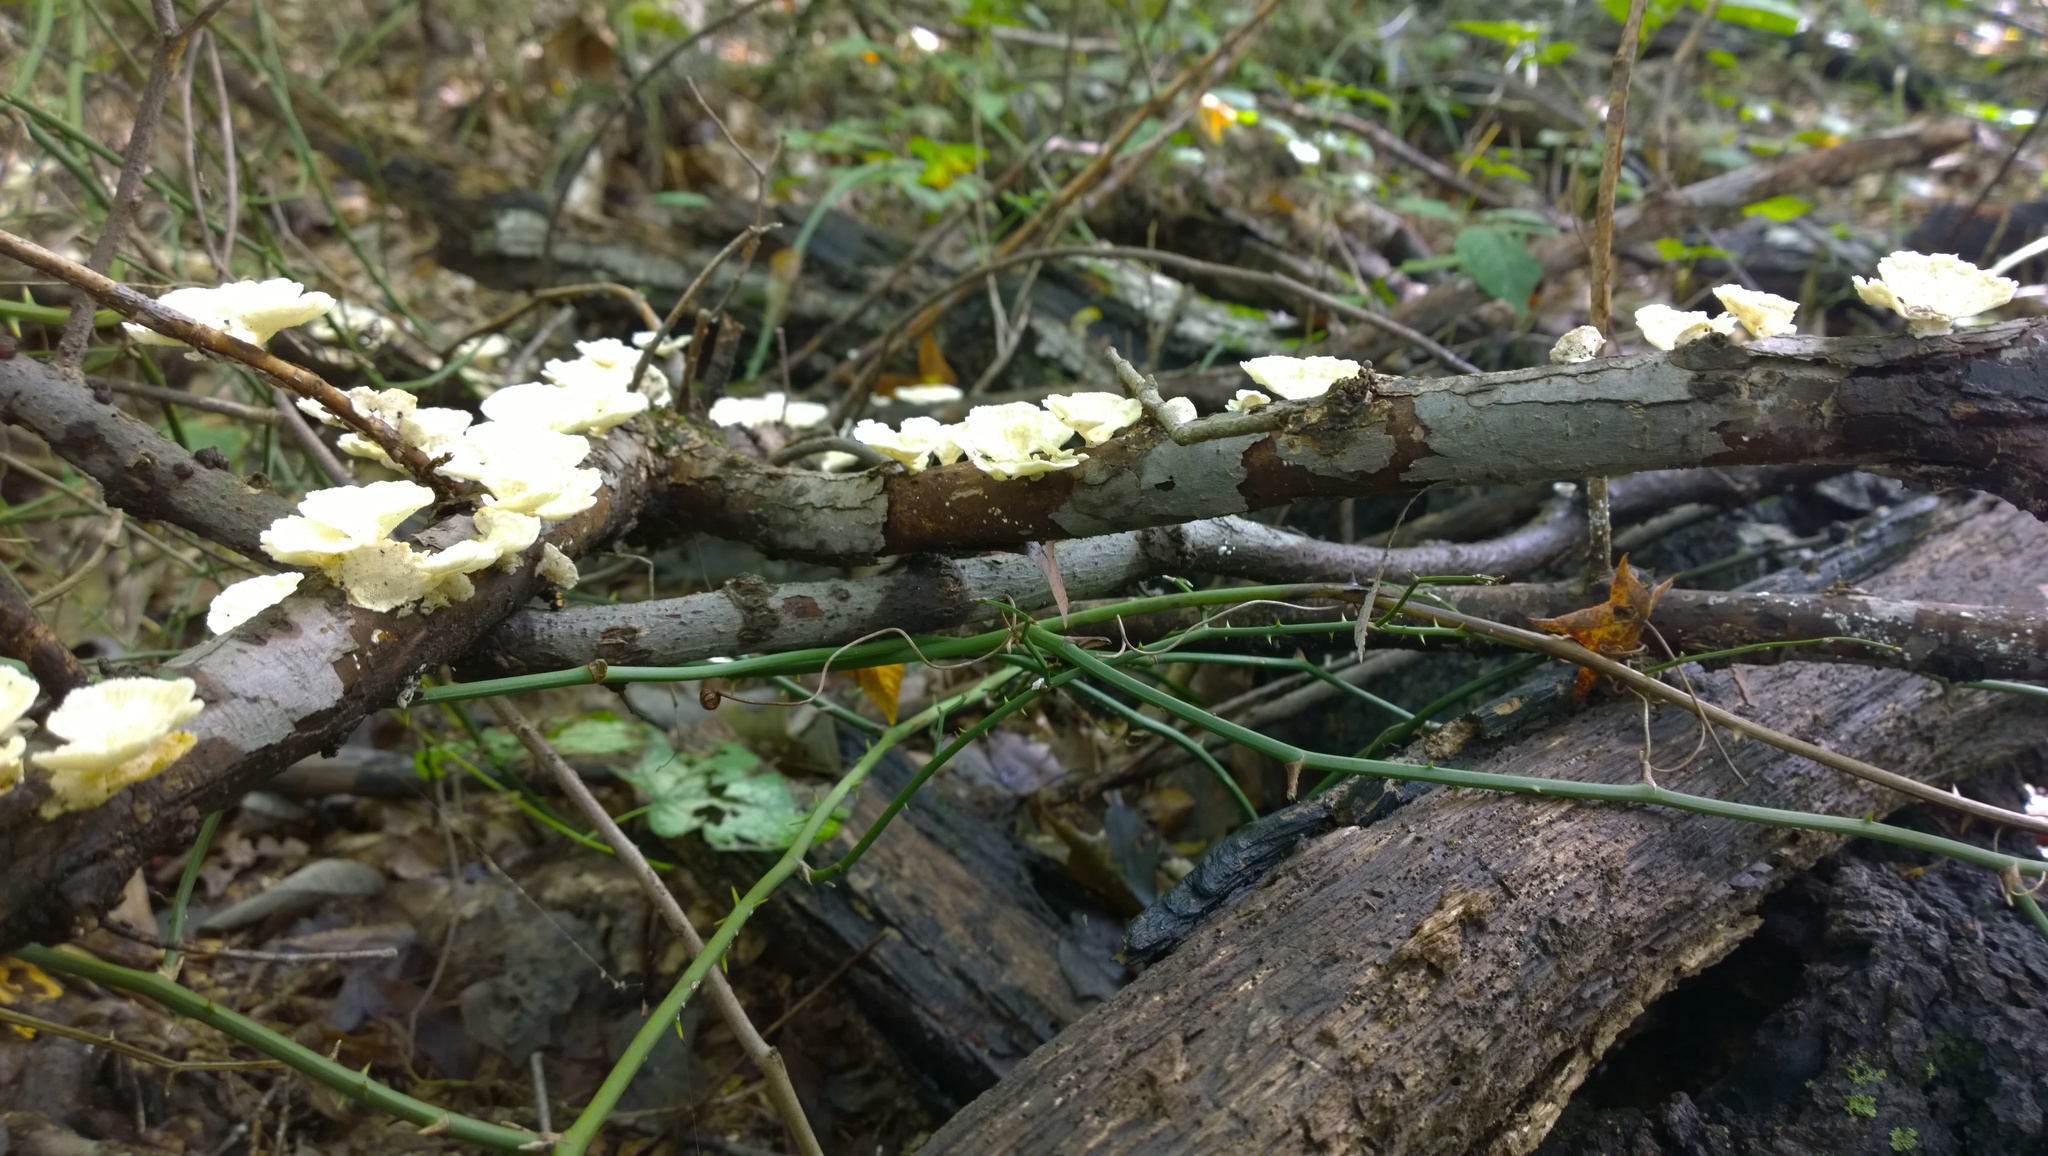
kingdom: Fungi
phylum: Basidiomycota
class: Agaricomycetes
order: Polyporales
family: Polyporaceae
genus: Poronidulus
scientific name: Poronidulus conchifer
